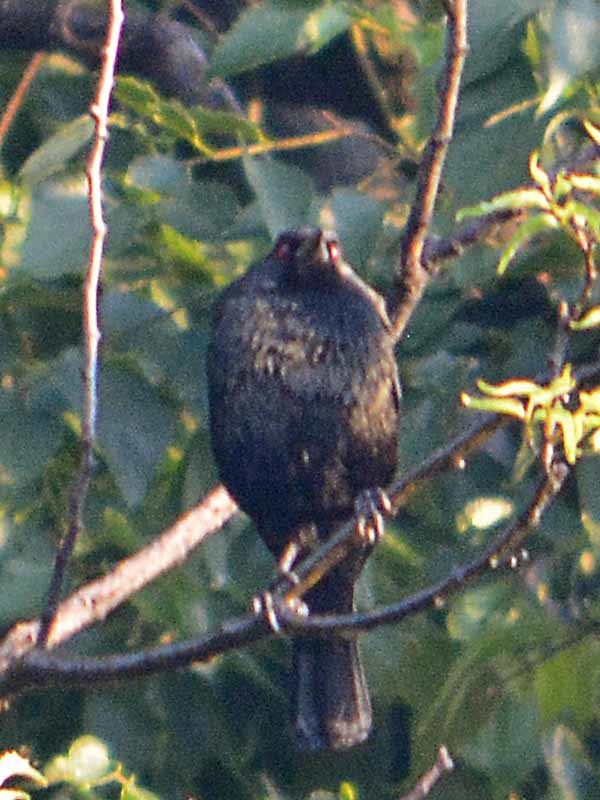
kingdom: Animalia
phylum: Chordata
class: Aves
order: Passeriformes
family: Icteridae
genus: Molothrus
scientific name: Molothrus aeneus
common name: Bronzed cowbird
